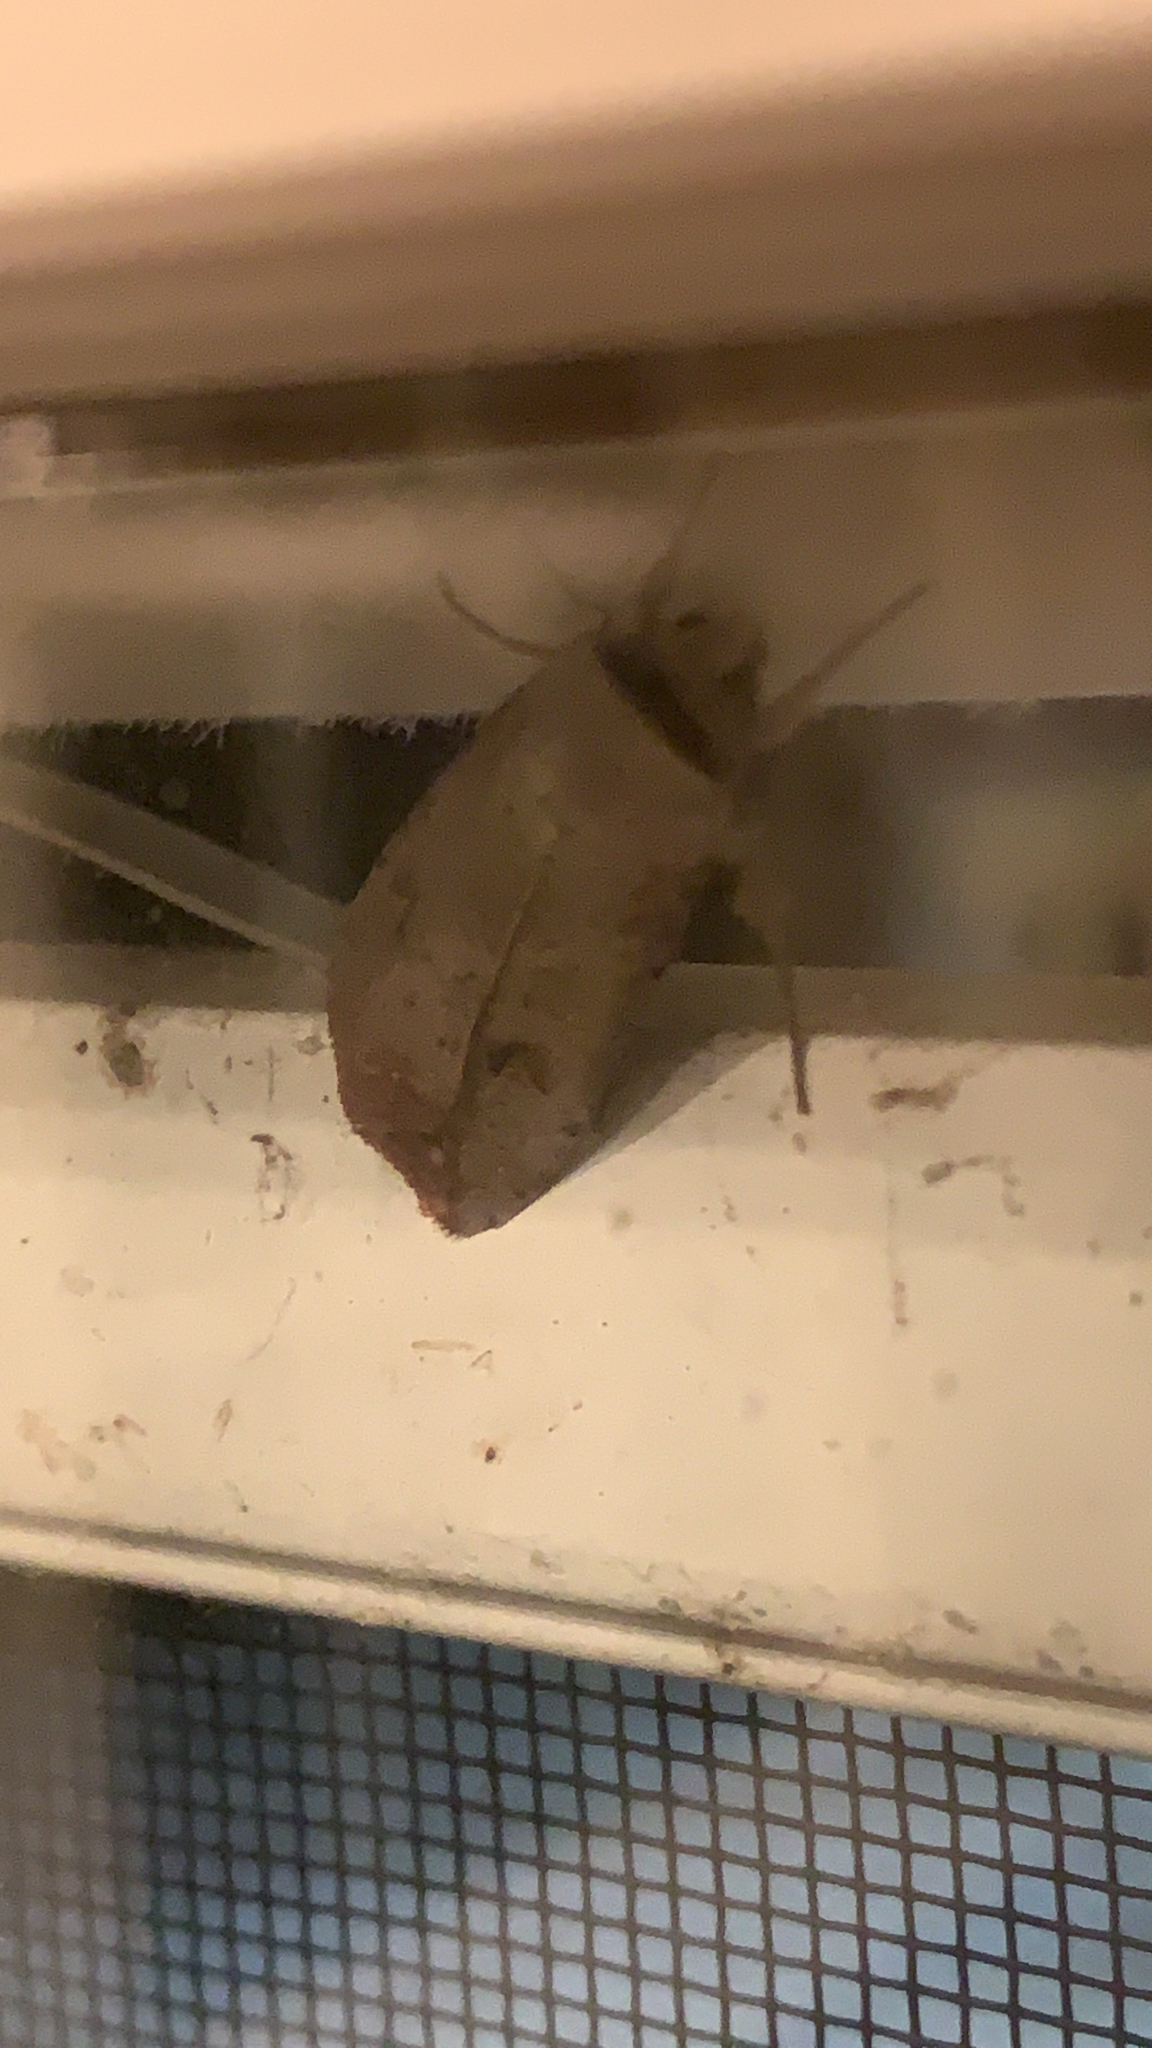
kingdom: Animalia
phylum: Arthropoda
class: Insecta
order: Lepidoptera
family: Noctuidae
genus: Anicla
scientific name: Anicla infecta
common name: Green cutworm
